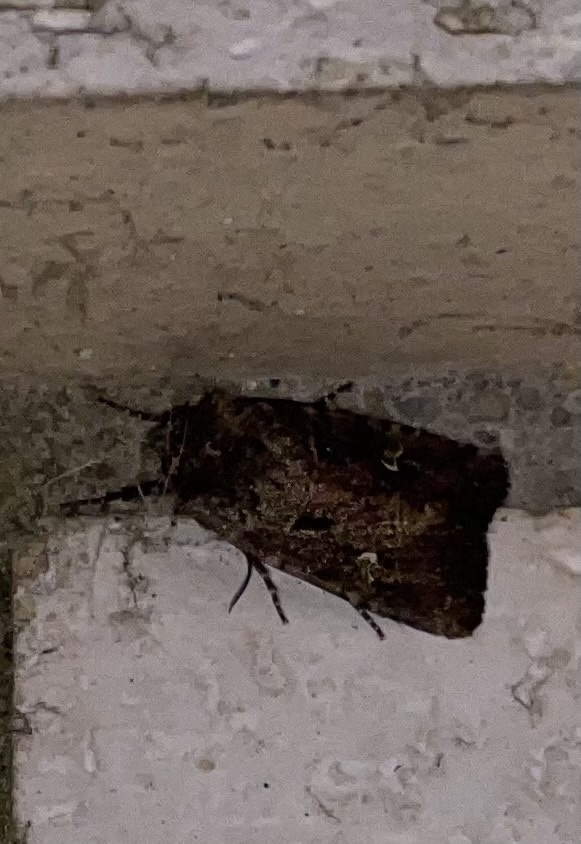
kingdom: Animalia
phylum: Arthropoda
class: Insecta
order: Lepidoptera
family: Noctuidae
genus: Lacinipolia
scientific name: Lacinipolia renigera
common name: Kidney-spotted minor
